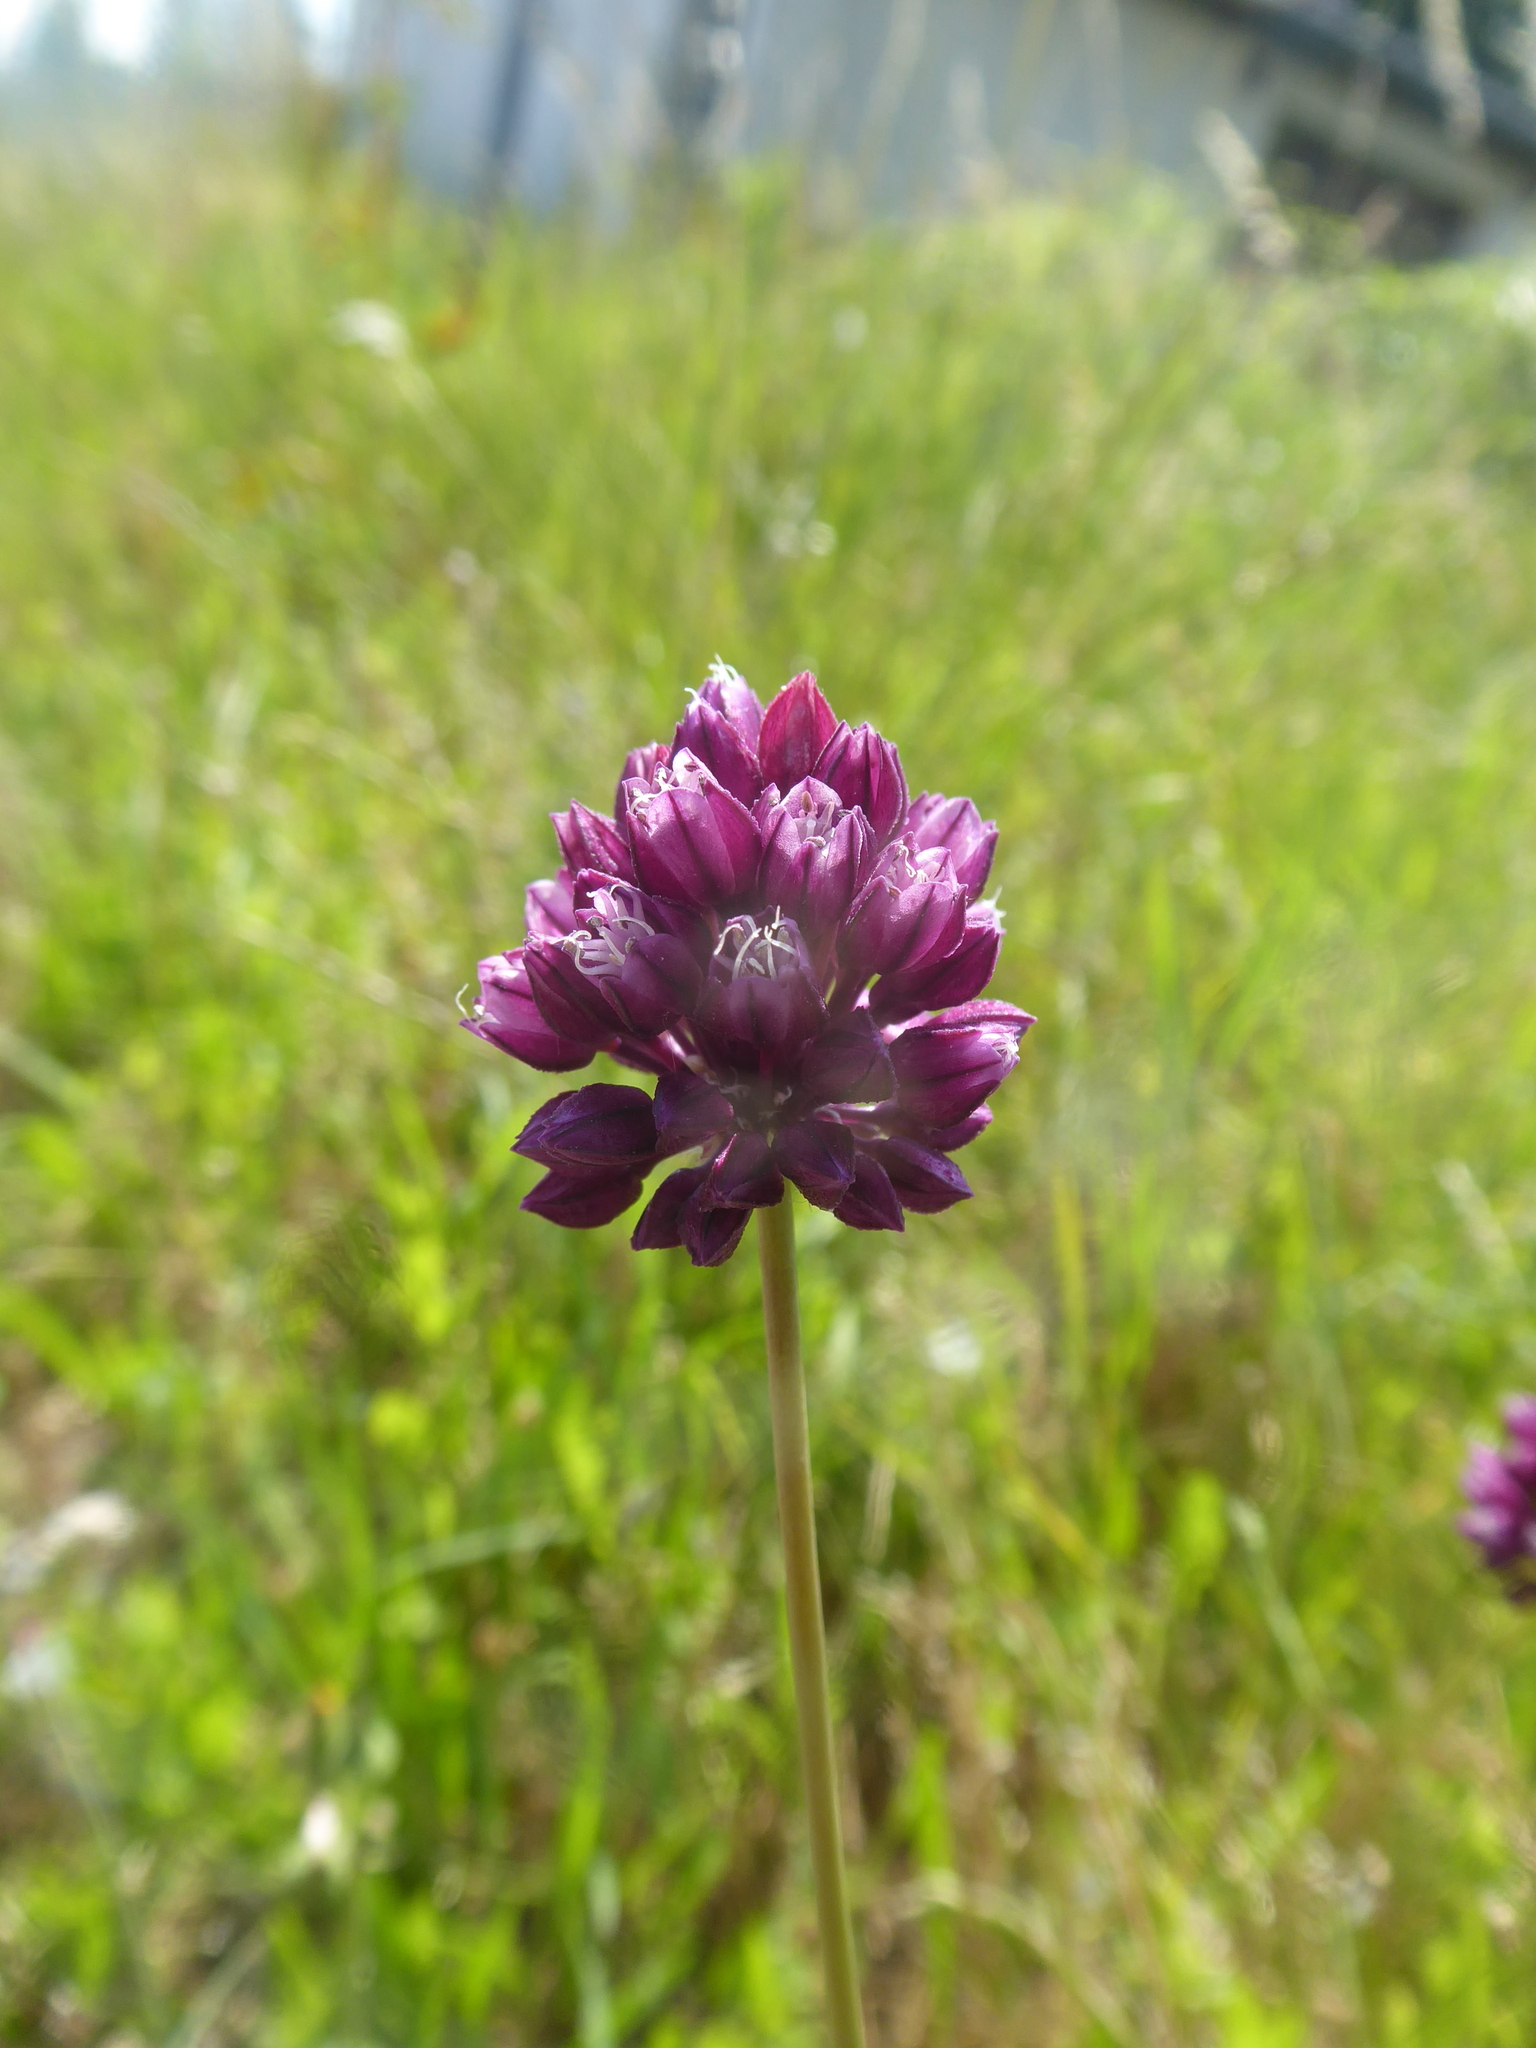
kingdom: Plantae
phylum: Tracheophyta
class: Liliopsida
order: Asparagales
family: Amaryllidaceae
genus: Allium
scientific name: Allium rotundum
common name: Sand leek
